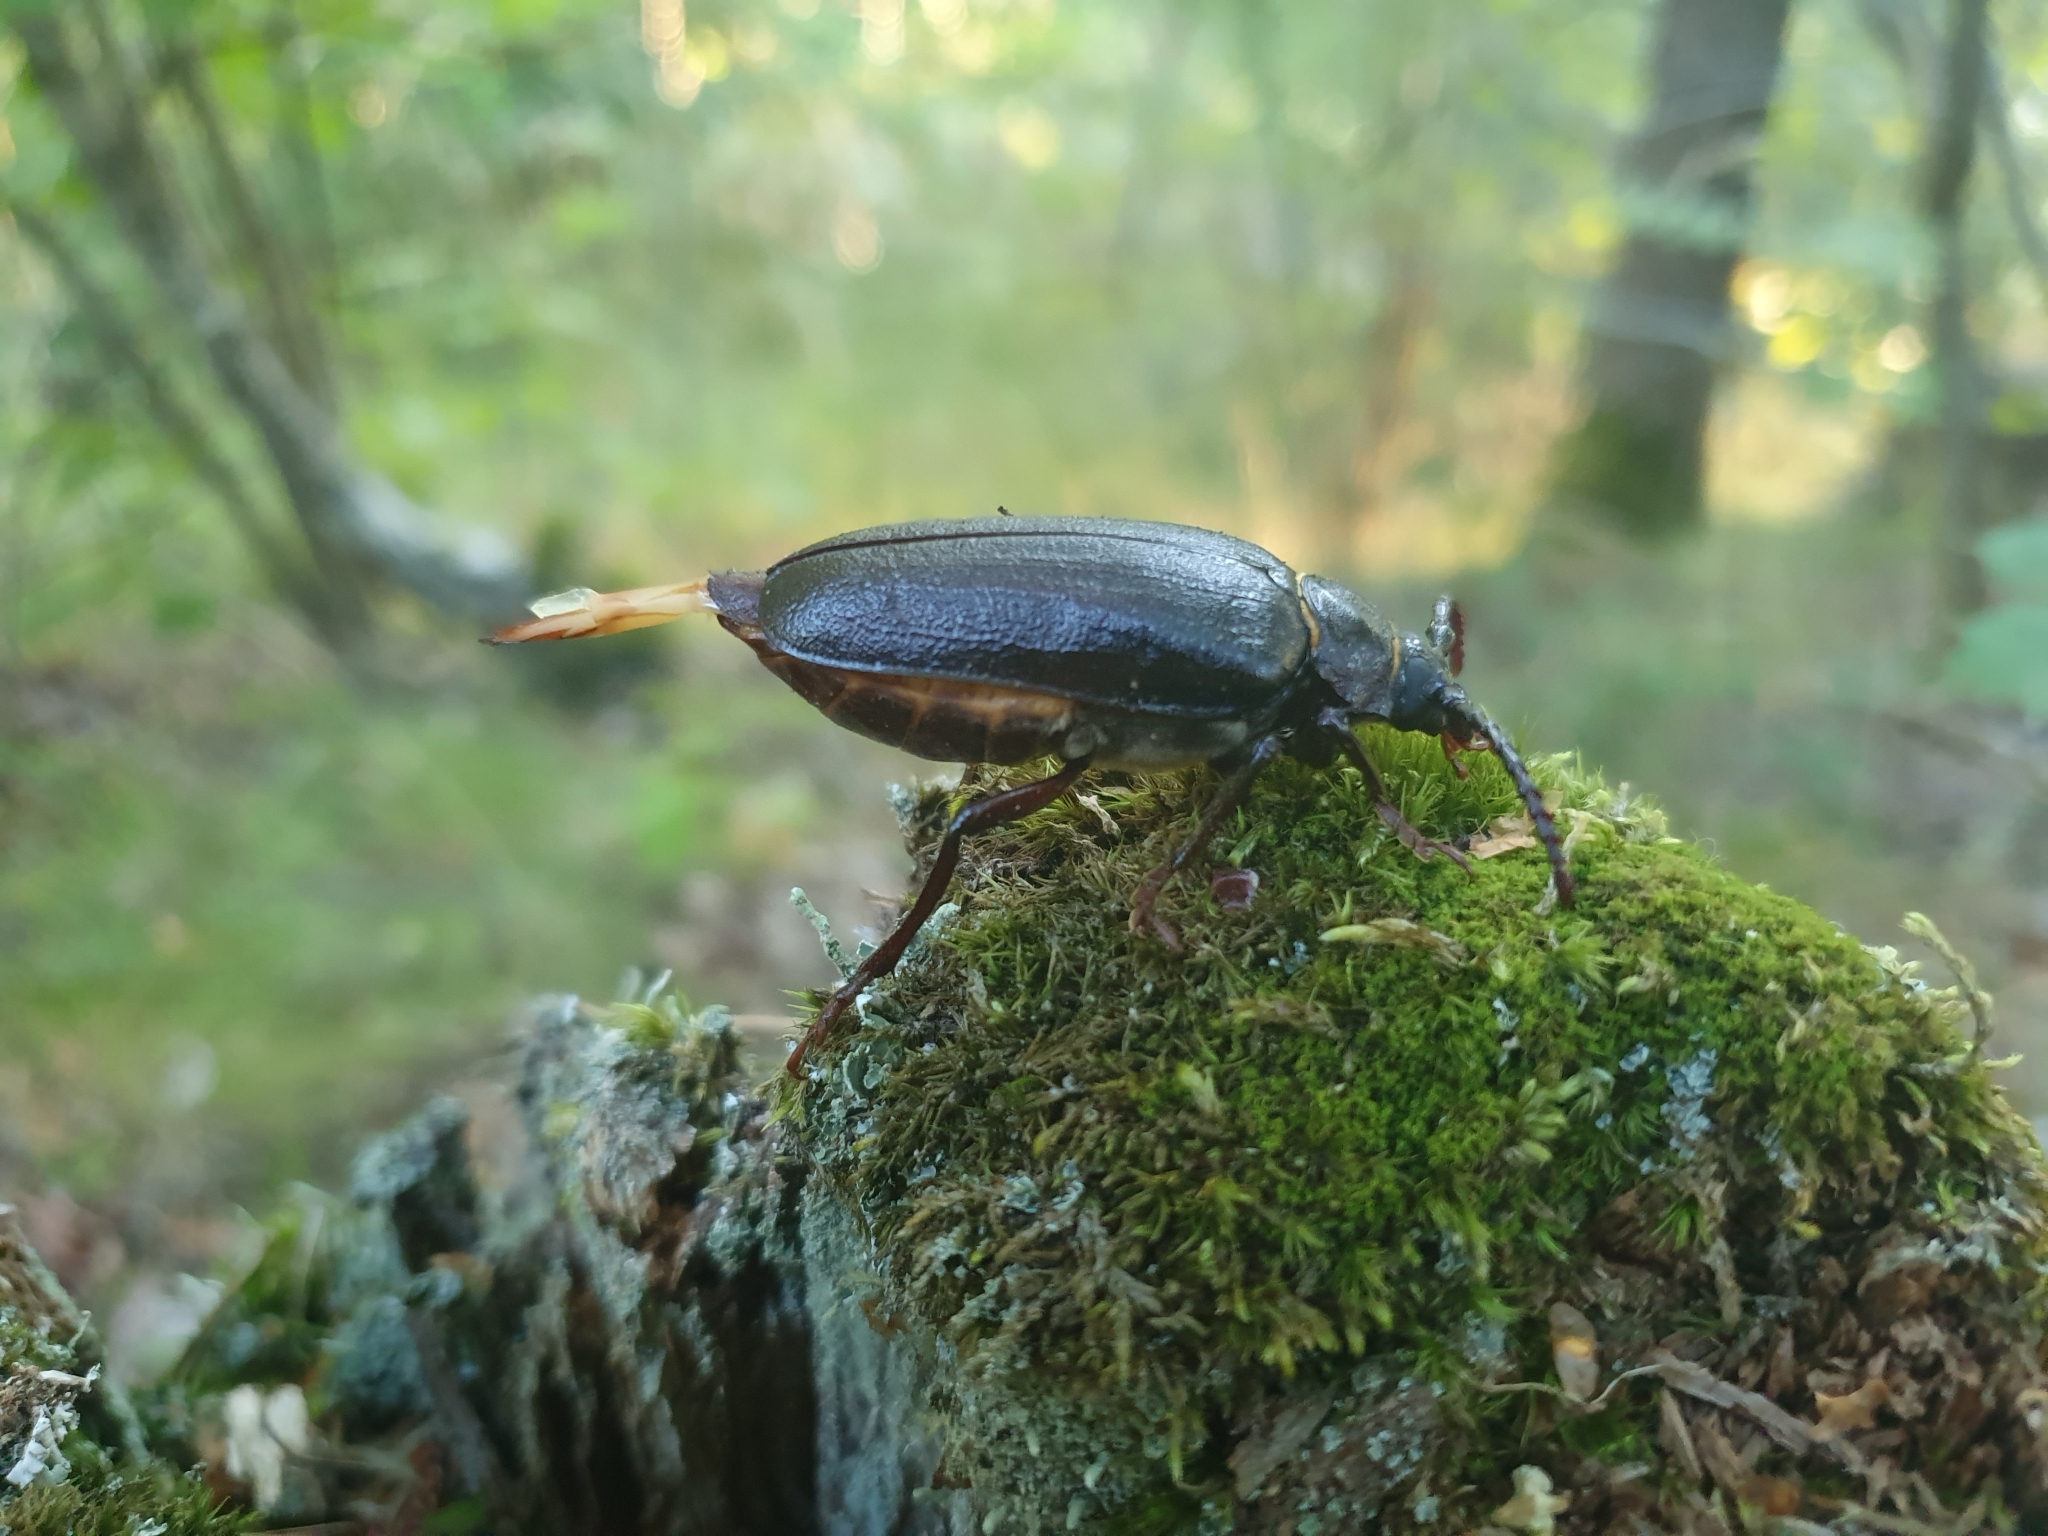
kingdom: Animalia
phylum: Arthropoda
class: Insecta
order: Coleoptera
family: Cerambycidae
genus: Prionus
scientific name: Prionus coriarius
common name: Tanner beetle
